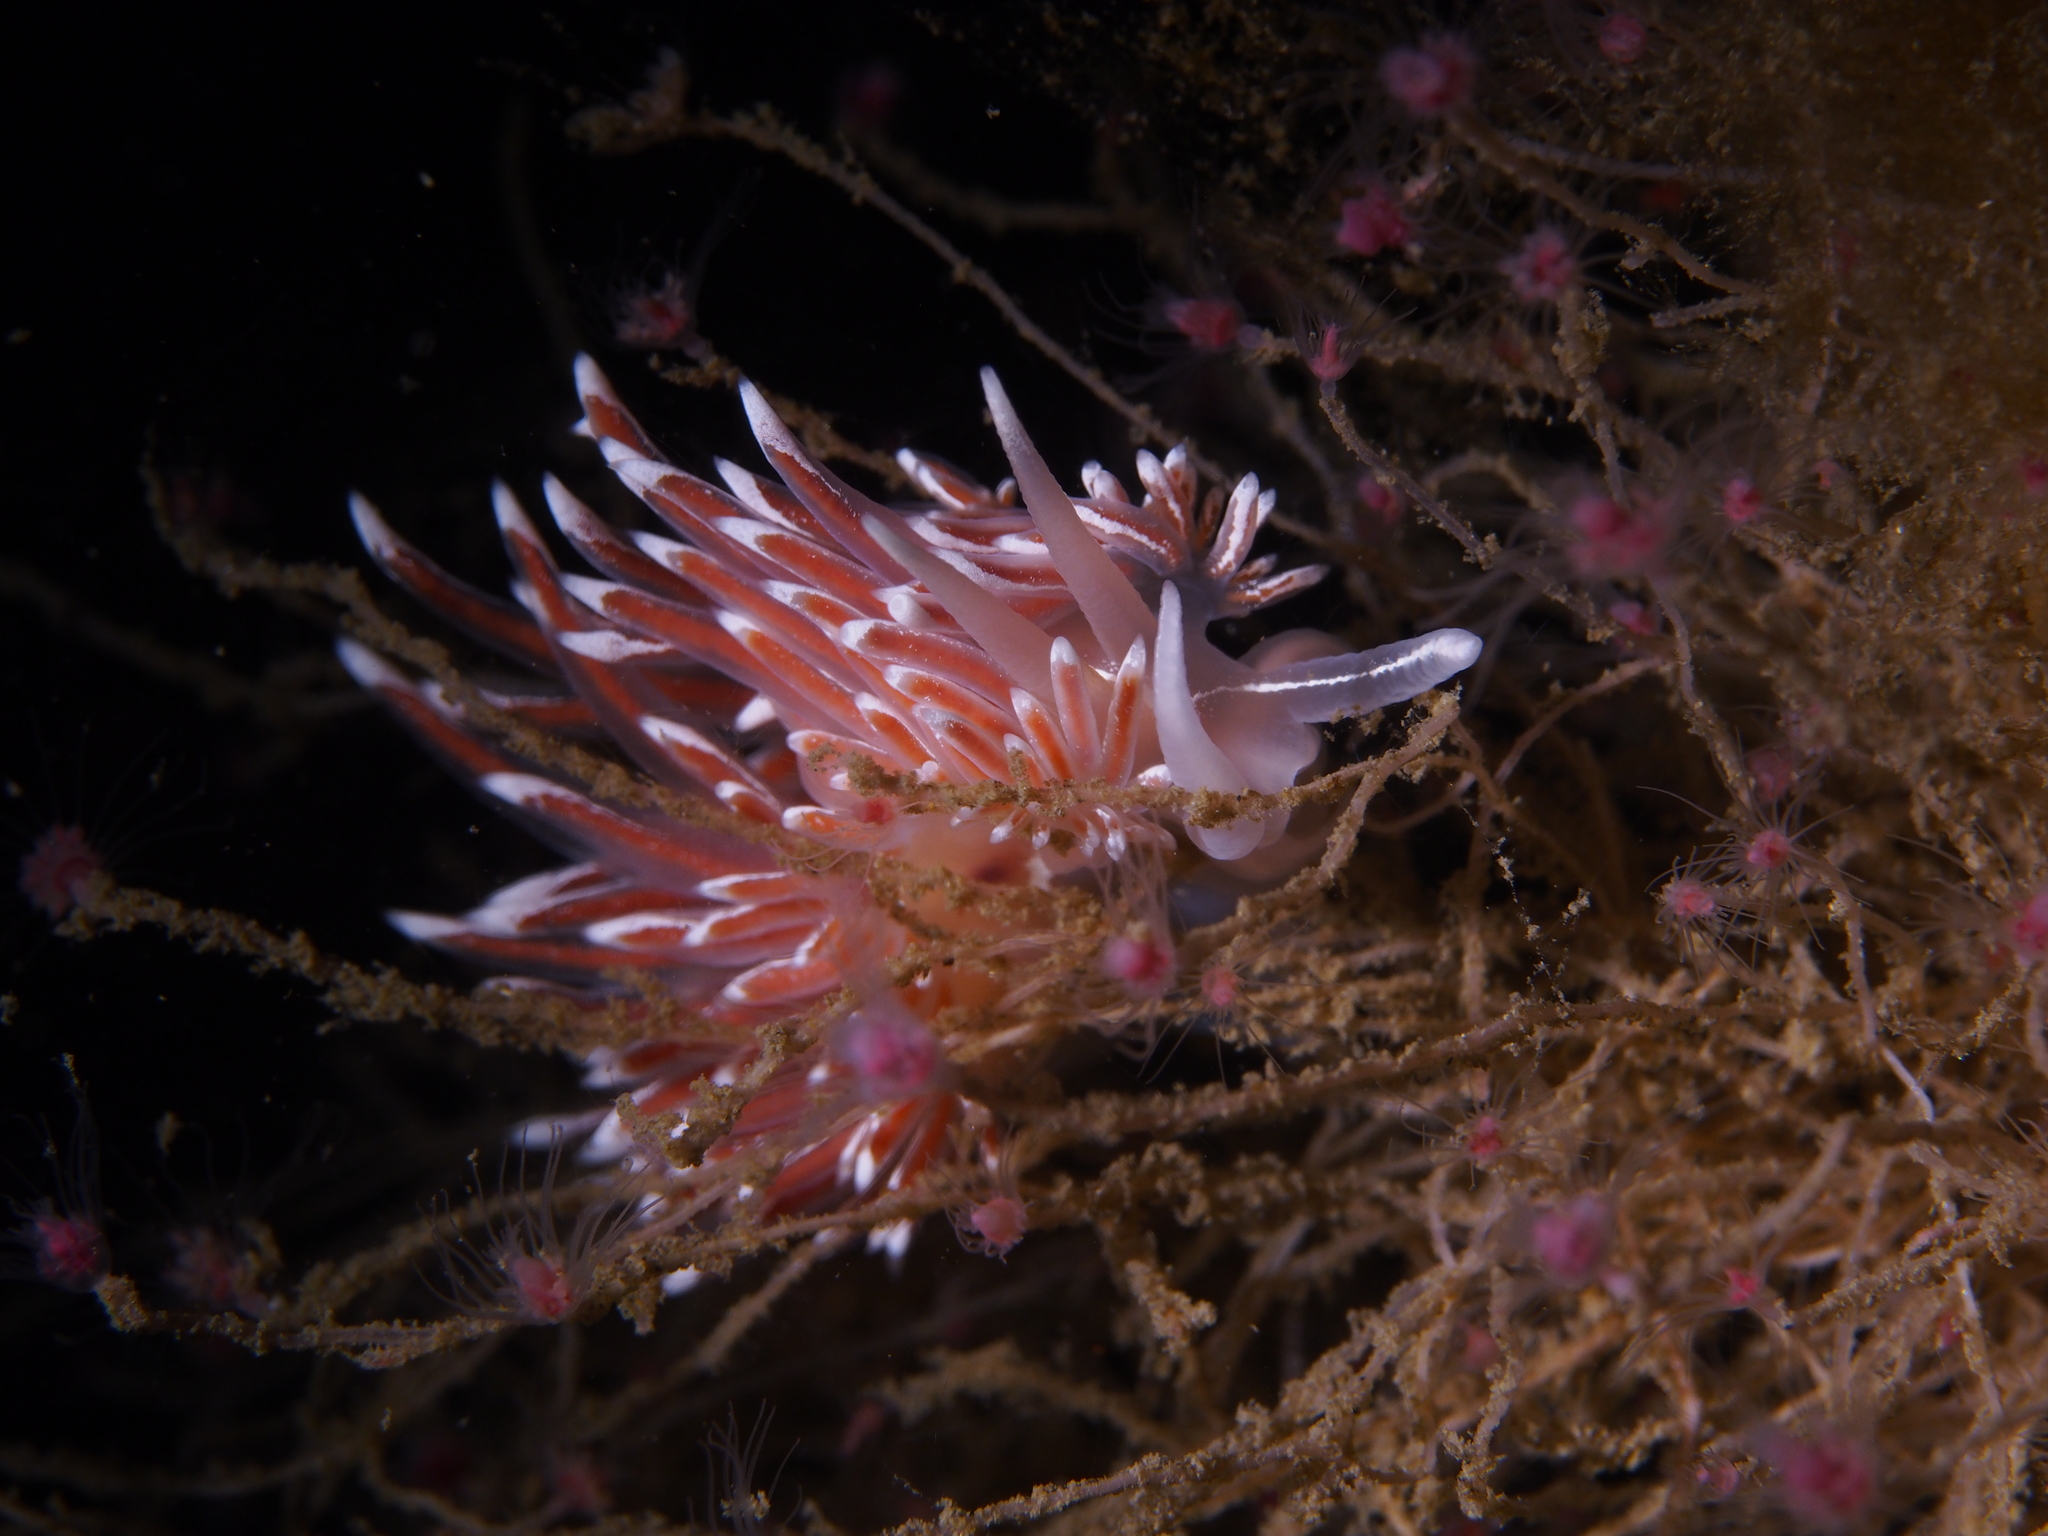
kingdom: Animalia
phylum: Mollusca
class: Gastropoda
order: Nudibranchia
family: Coryphellidae
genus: Coryphella
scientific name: Coryphella lineata
